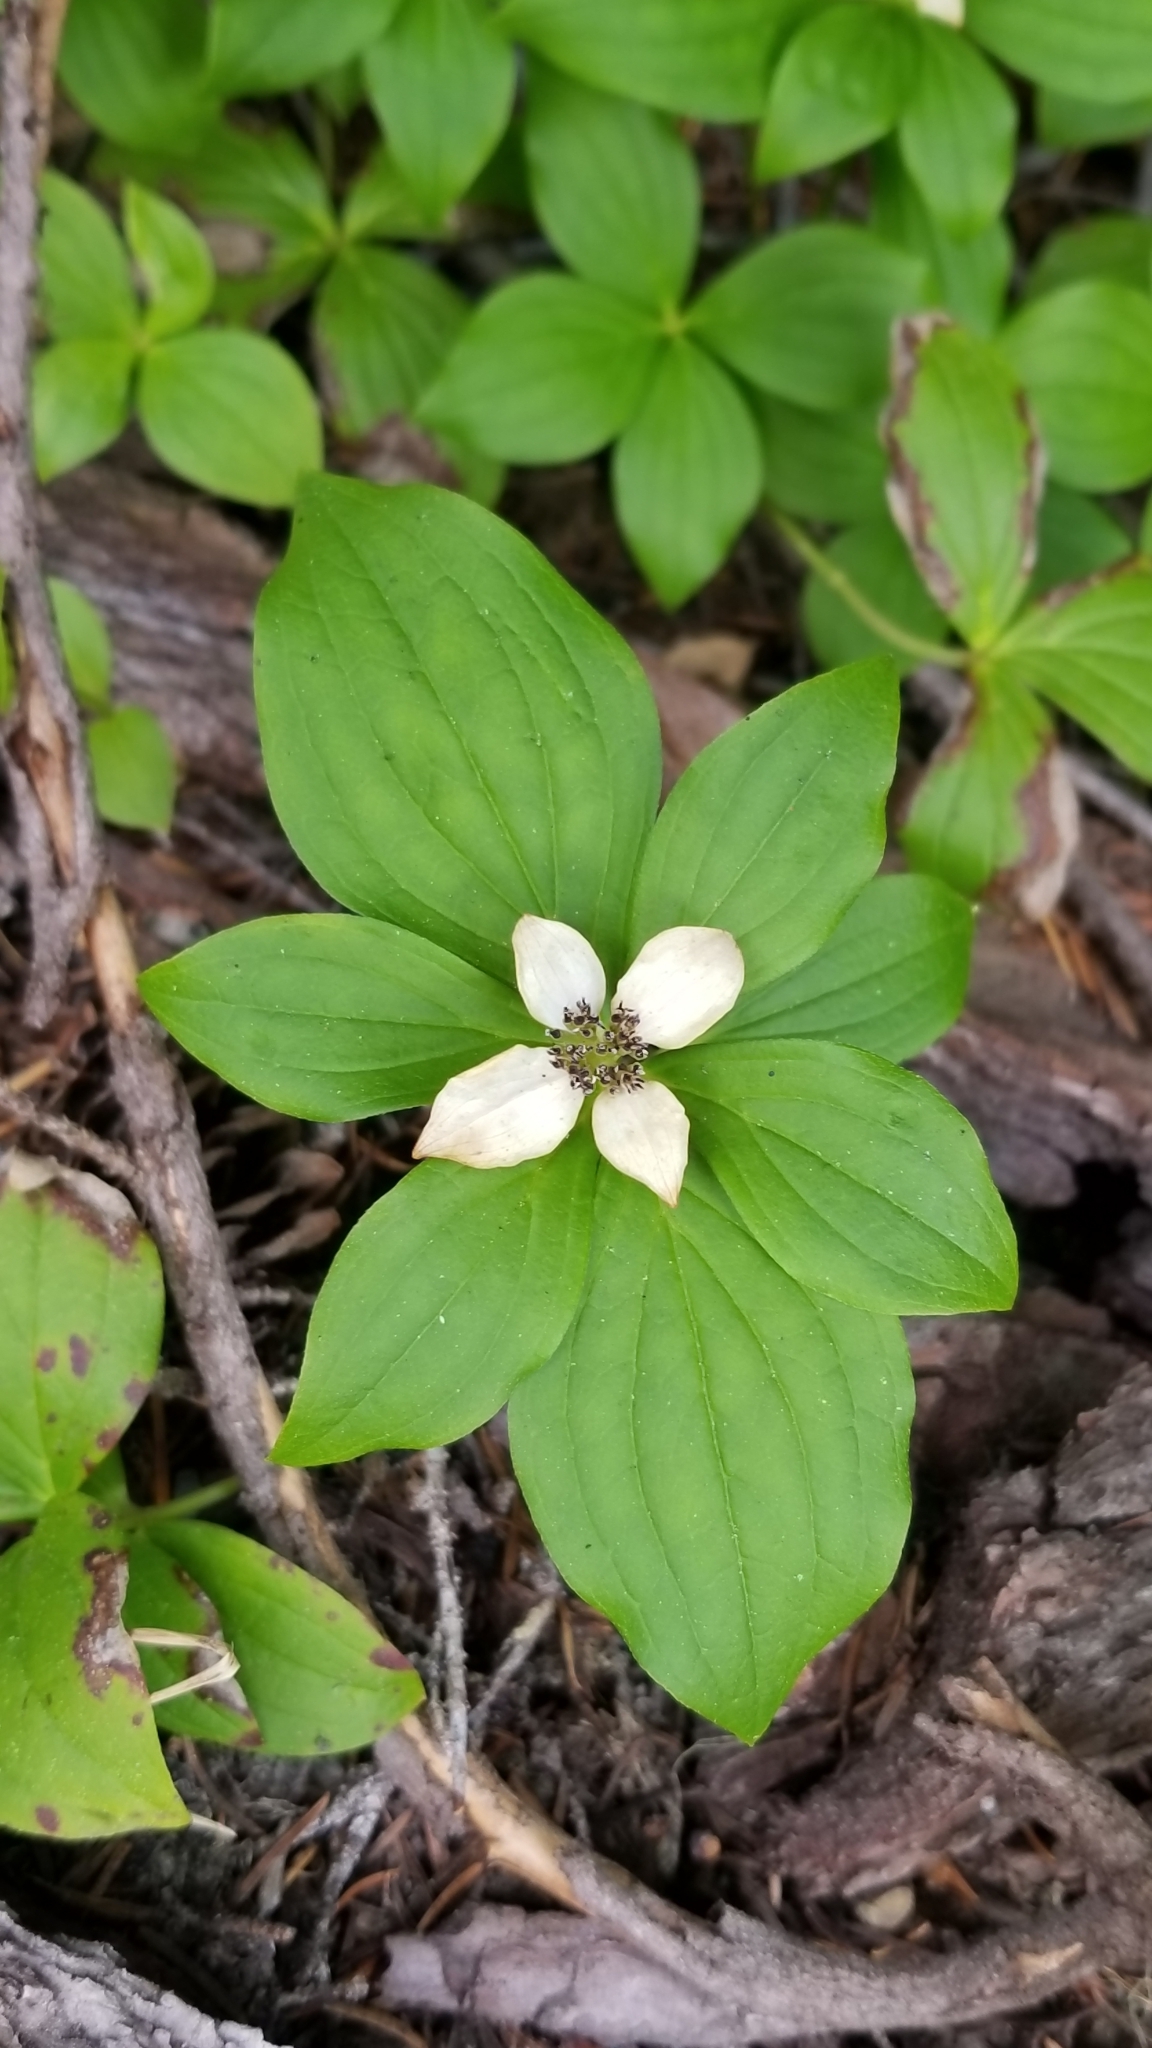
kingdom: Plantae
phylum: Tracheophyta
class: Magnoliopsida
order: Cornales
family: Cornaceae
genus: Cornus
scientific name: Cornus unalaschkensis
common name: Alaska bunchberry
